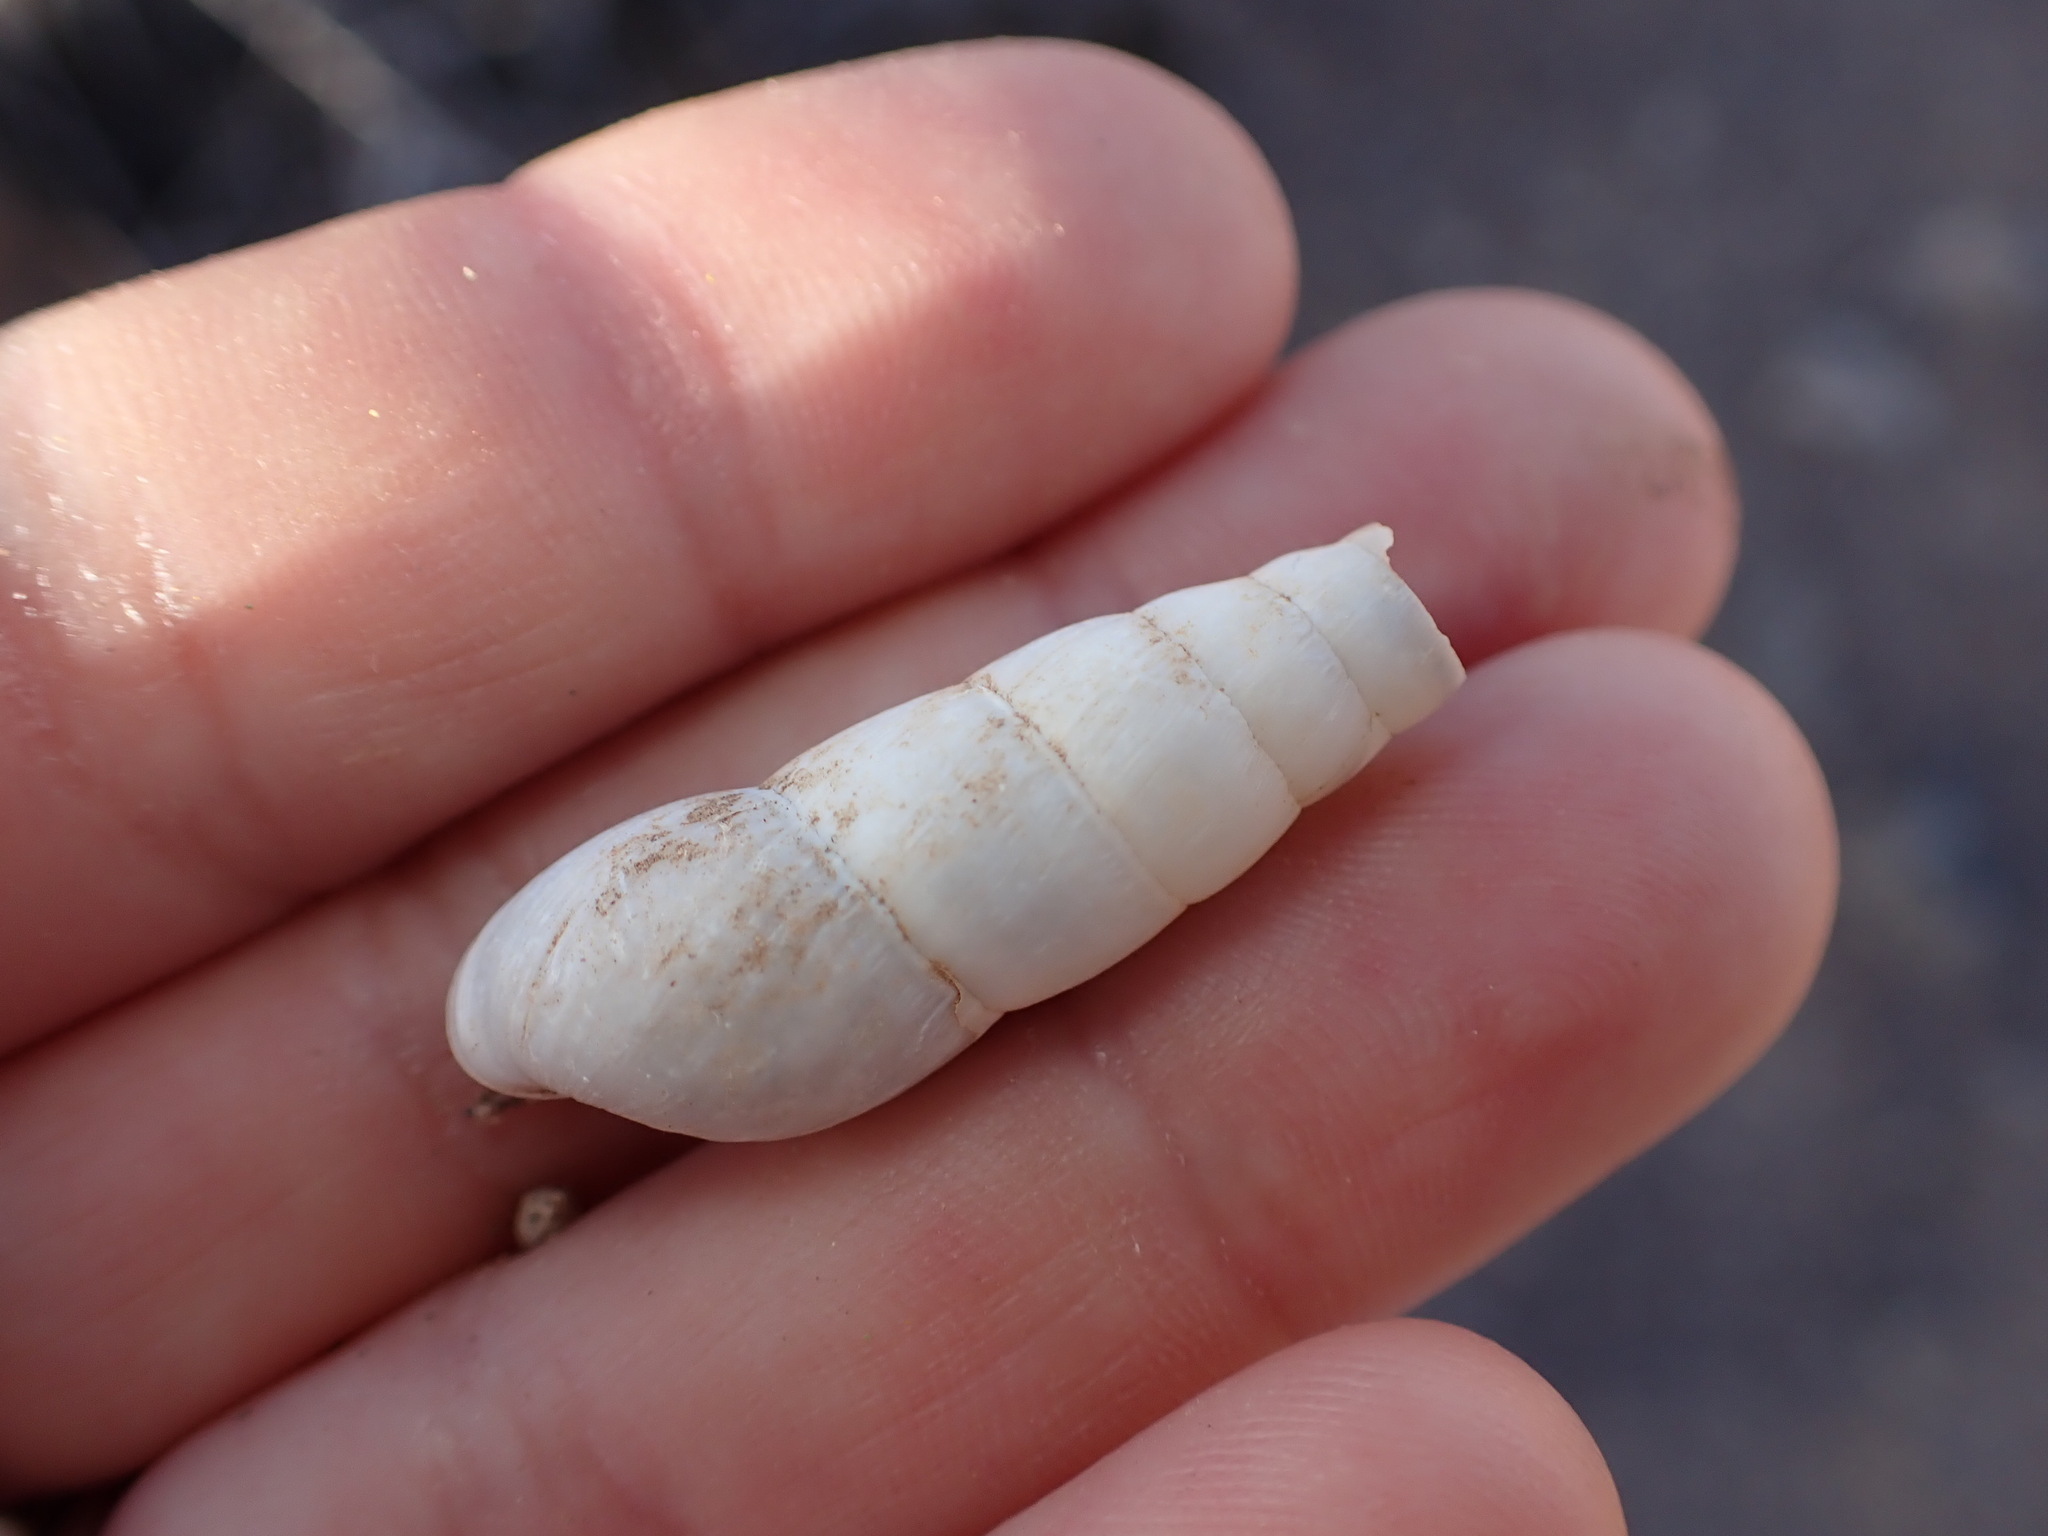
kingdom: Animalia
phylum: Mollusca
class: Gastropoda
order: Stylommatophora
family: Achatinidae
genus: Rumina
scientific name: Rumina decollata
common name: Decollate snail
